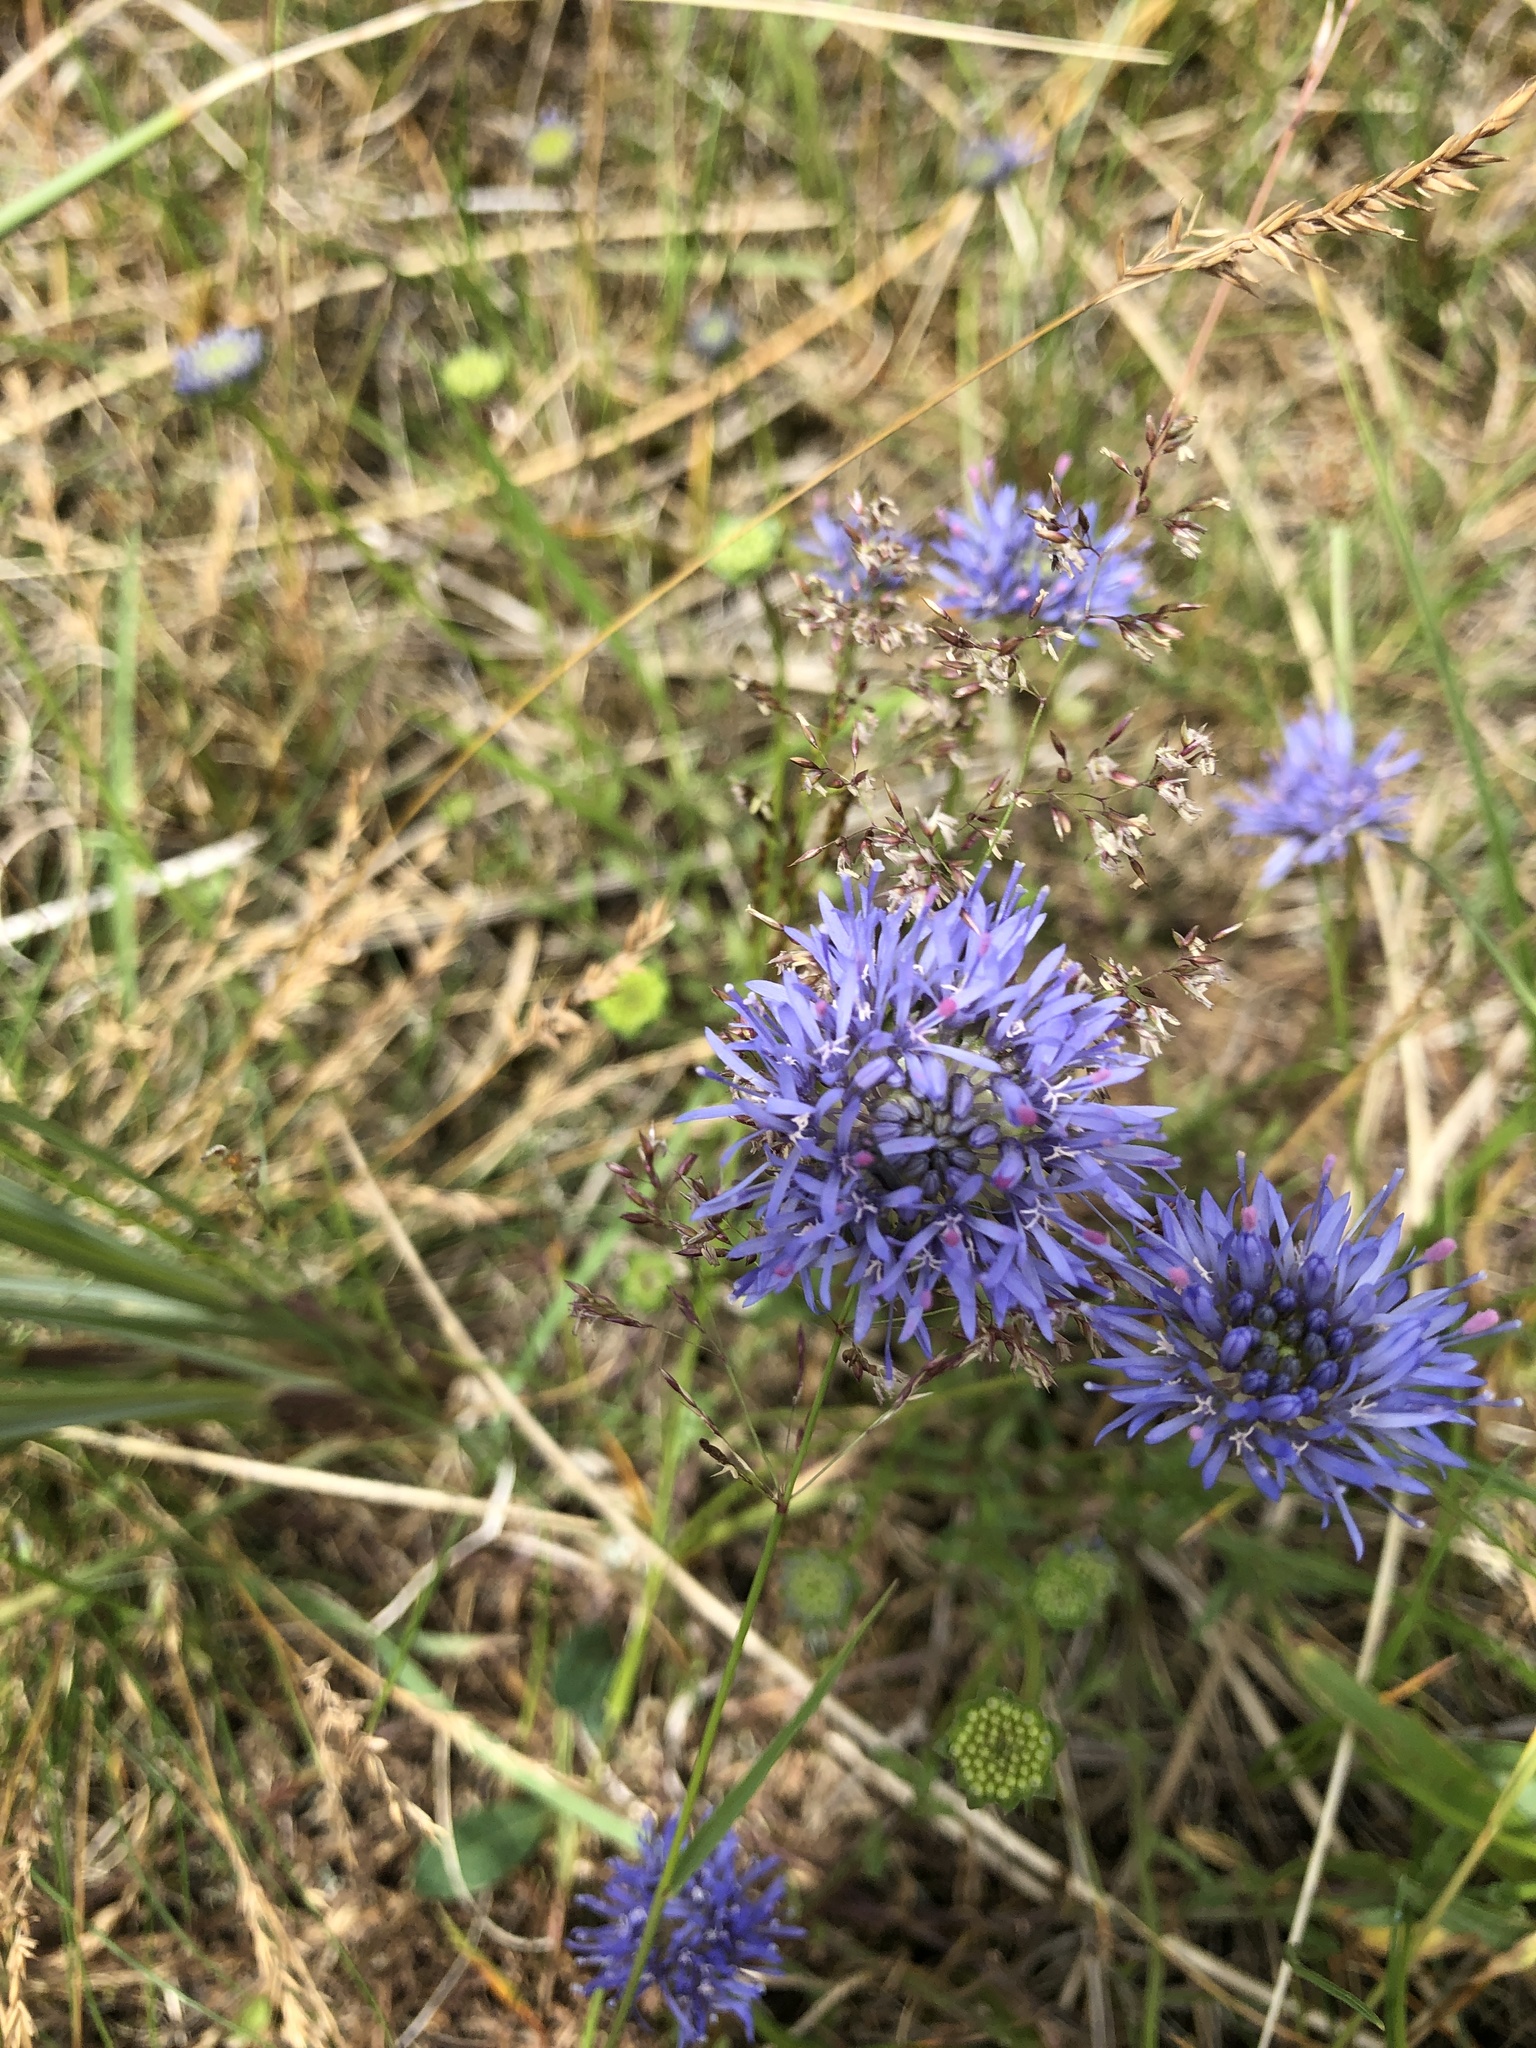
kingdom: Plantae
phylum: Tracheophyta
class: Magnoliopsida
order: Asterales
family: Campanulaceae
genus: Jasione
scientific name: Jasione montana
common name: Sheep's-bit
